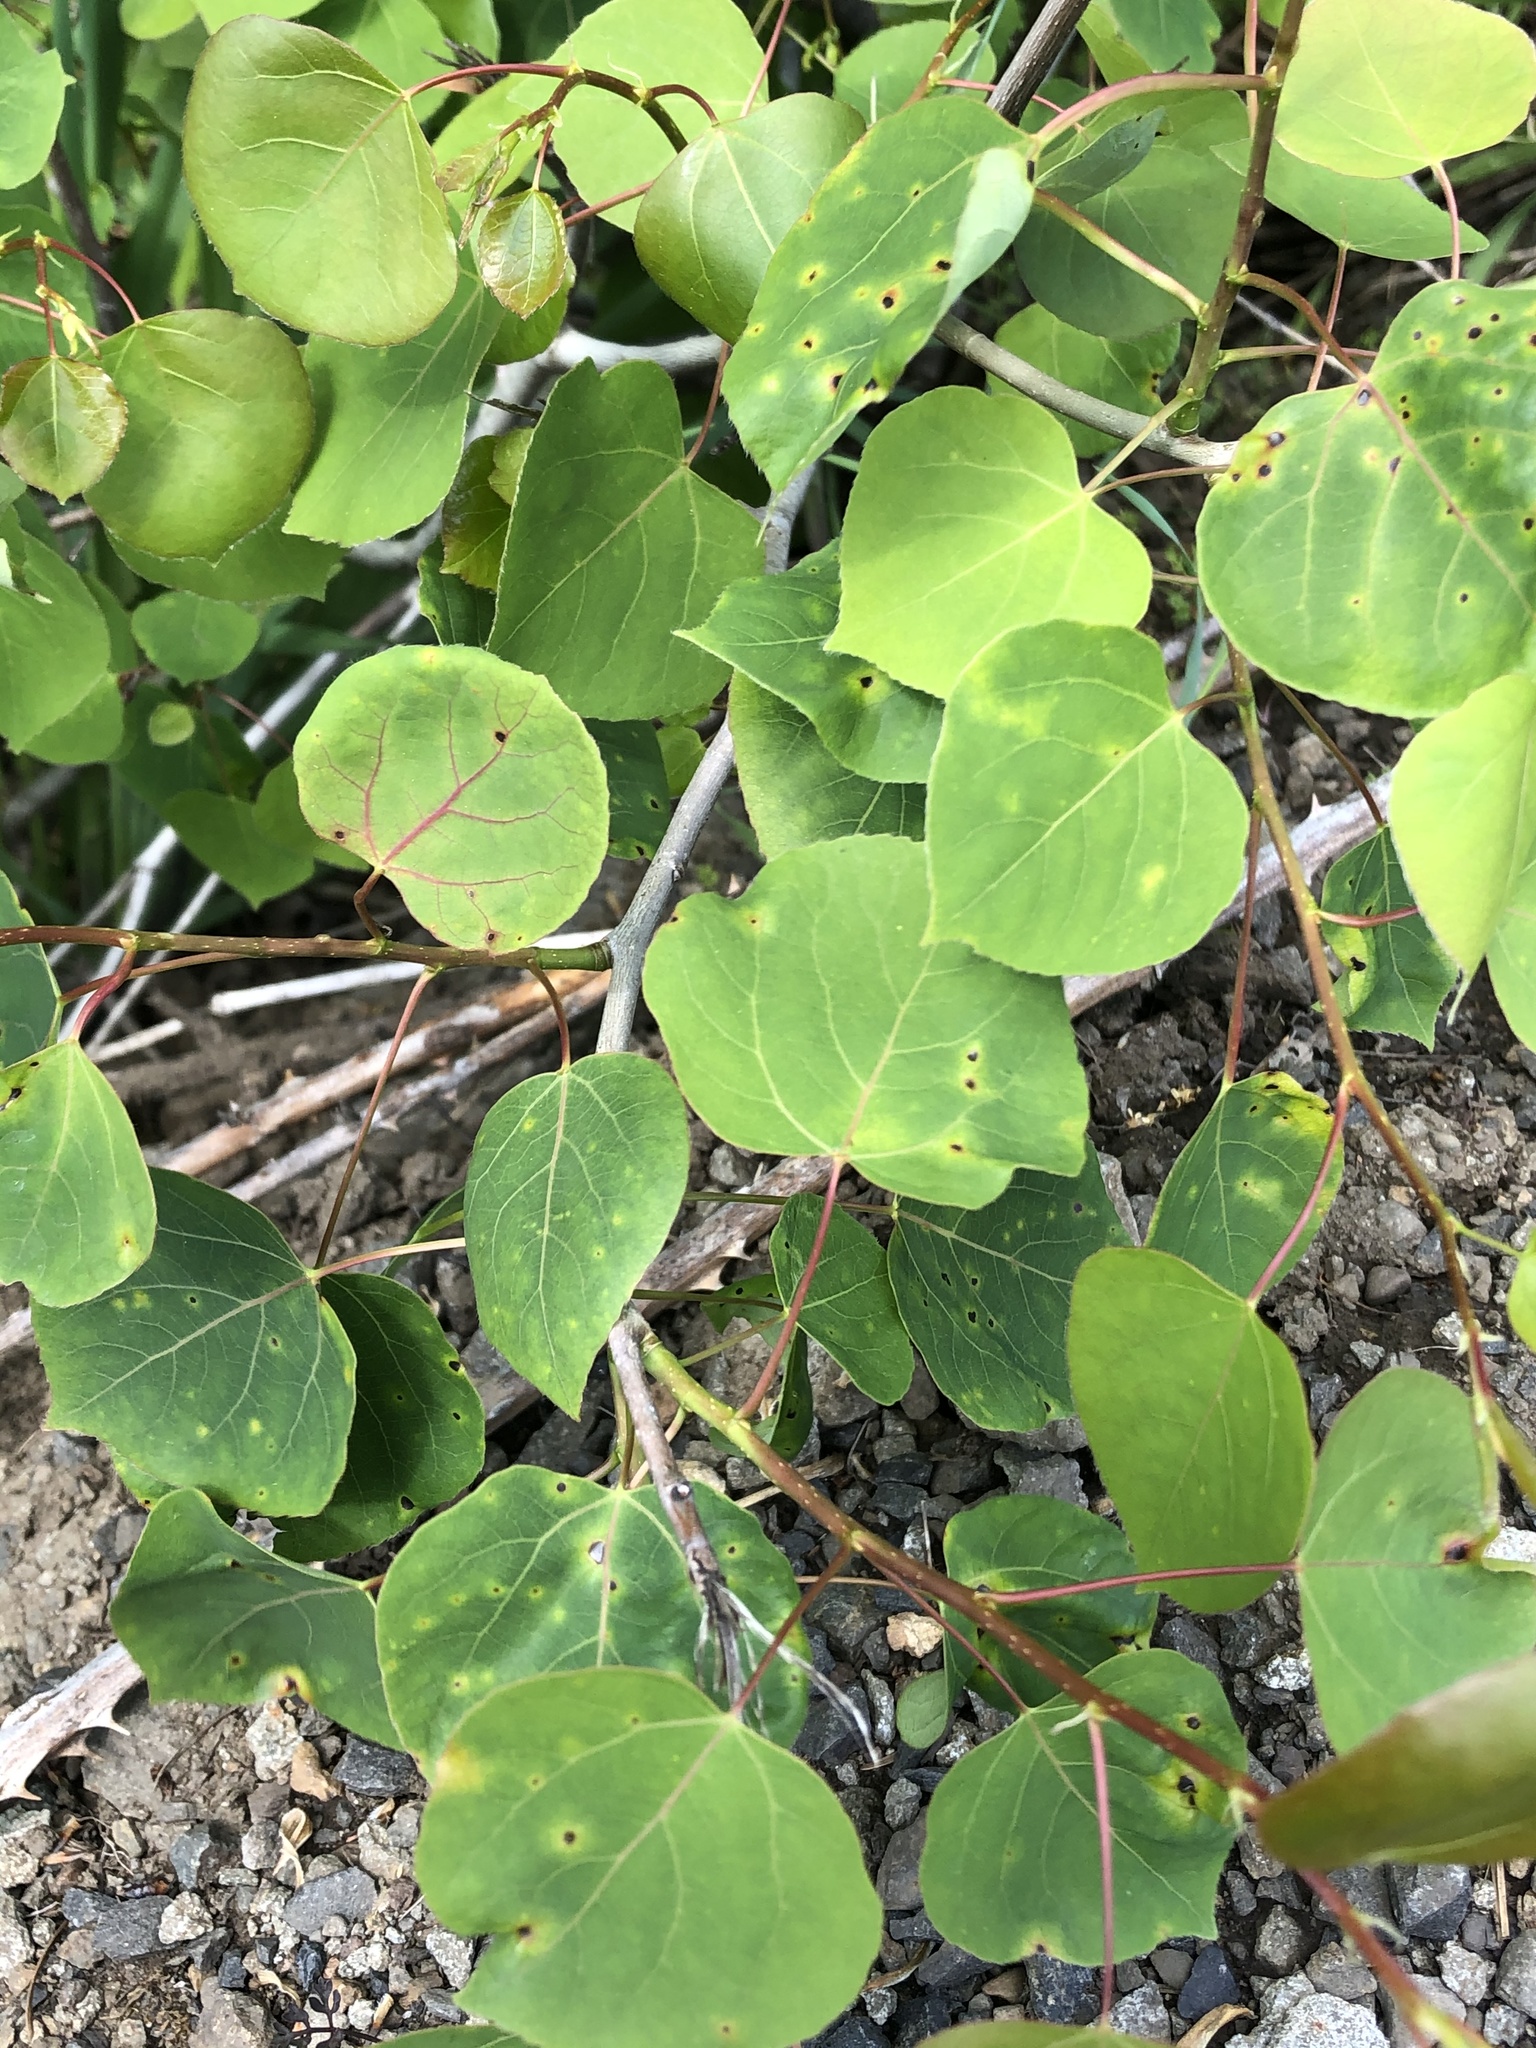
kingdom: Plantae
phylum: Tracheophyta
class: Magnoliopsida
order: Malpighiales
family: Salicaceae
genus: Populus
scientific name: Populus tremuloides
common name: Quaking aspen
